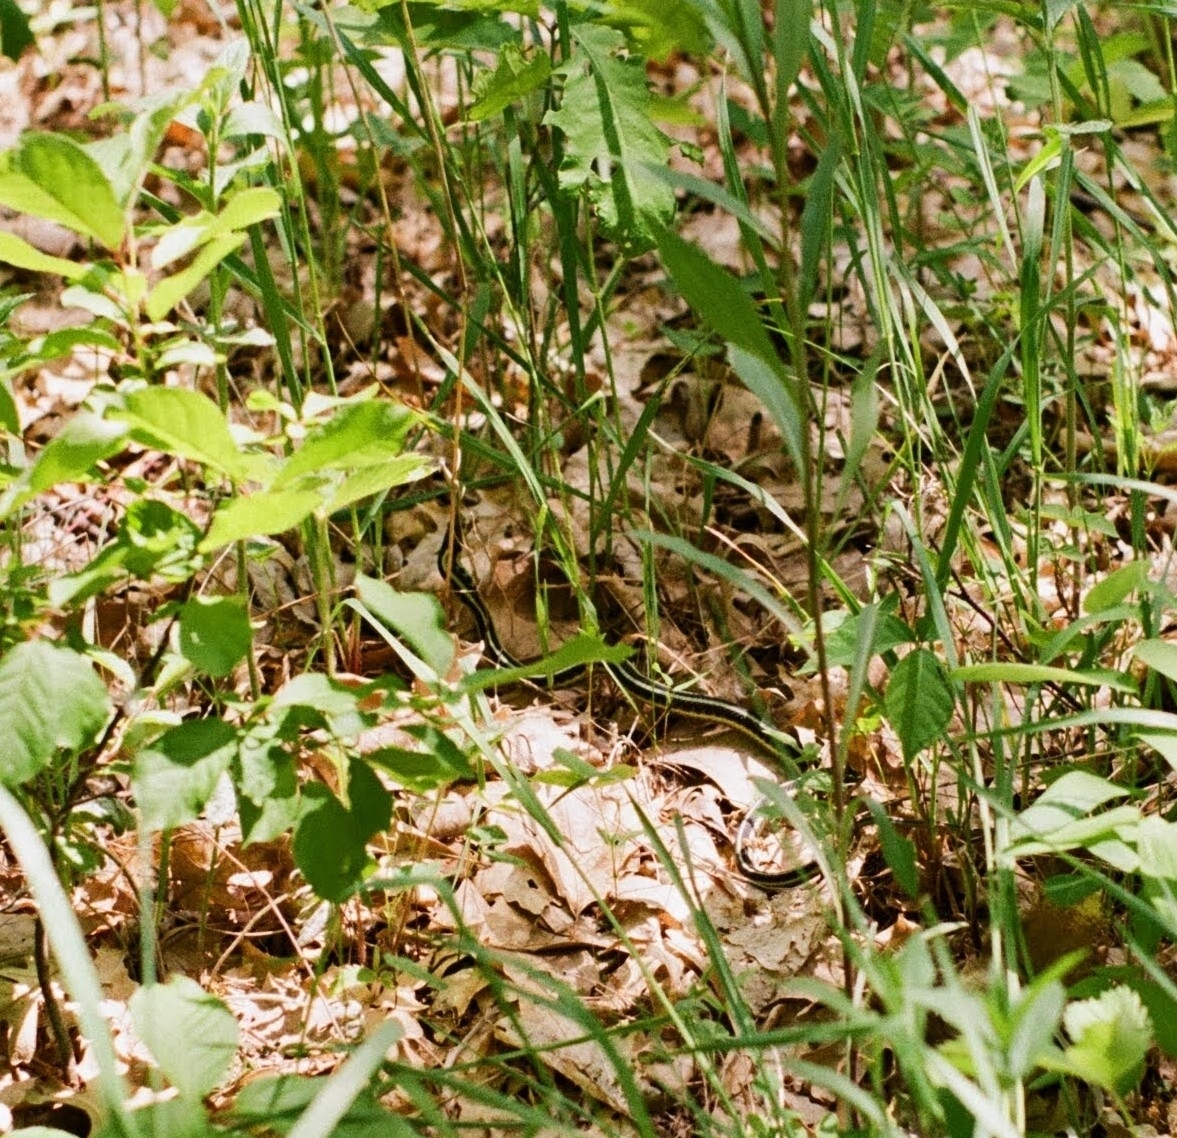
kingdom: Animalia
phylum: Chordata
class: Squamata
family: Colubridae
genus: Thamnophis
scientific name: Thamnophis sirtalis
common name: Common garter snake
